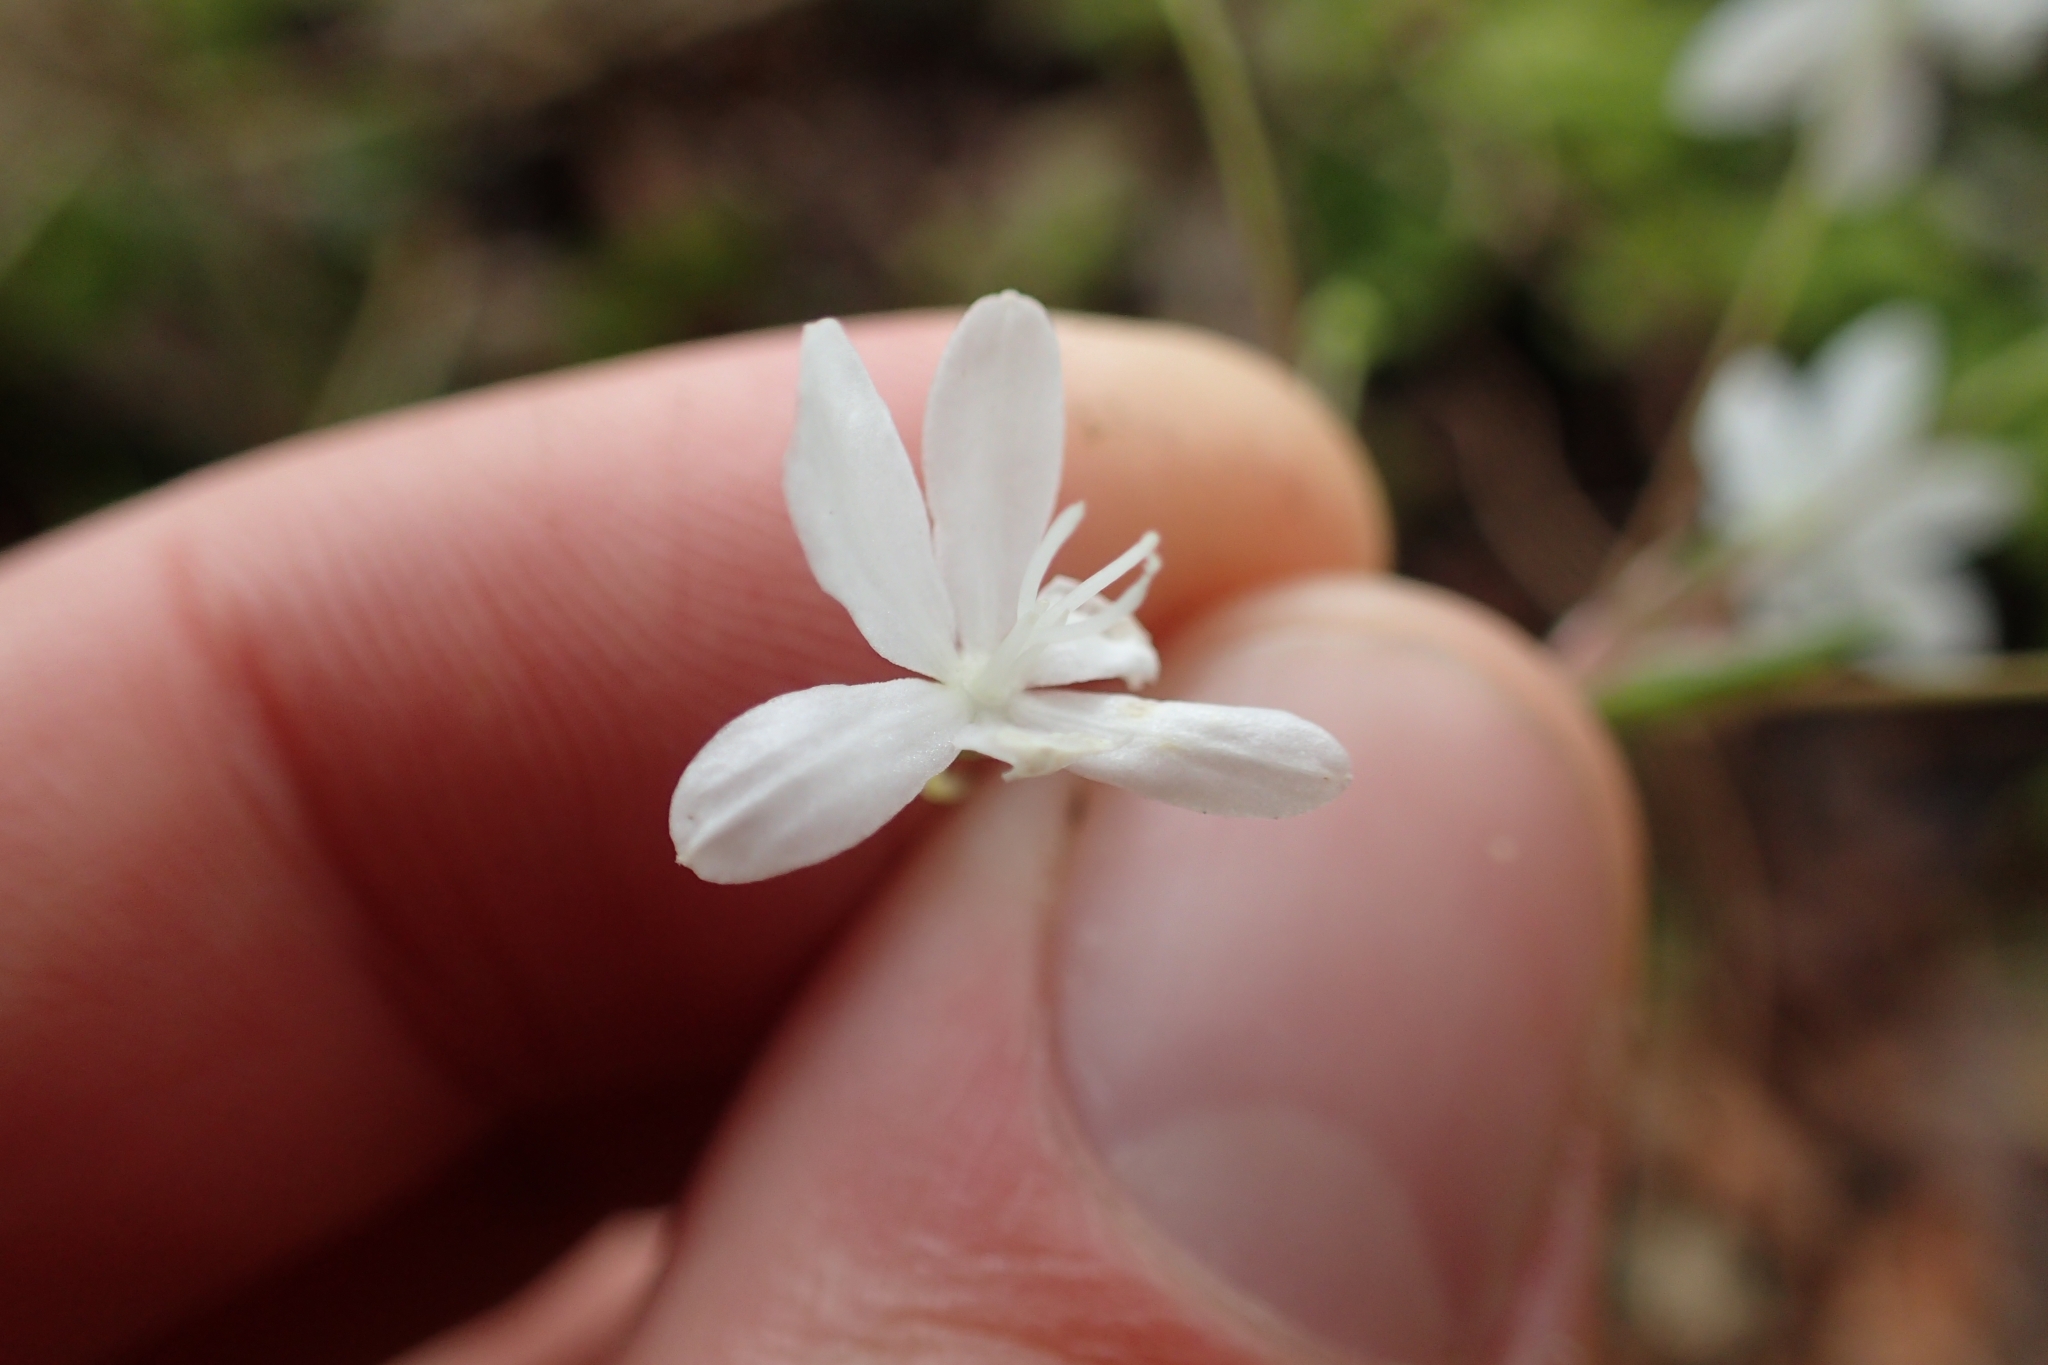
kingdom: Plantae
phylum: Tracheophyta
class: Liliopsida
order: Asparagales
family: Iridaceae
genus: Libertia
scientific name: Libertia micrantha
